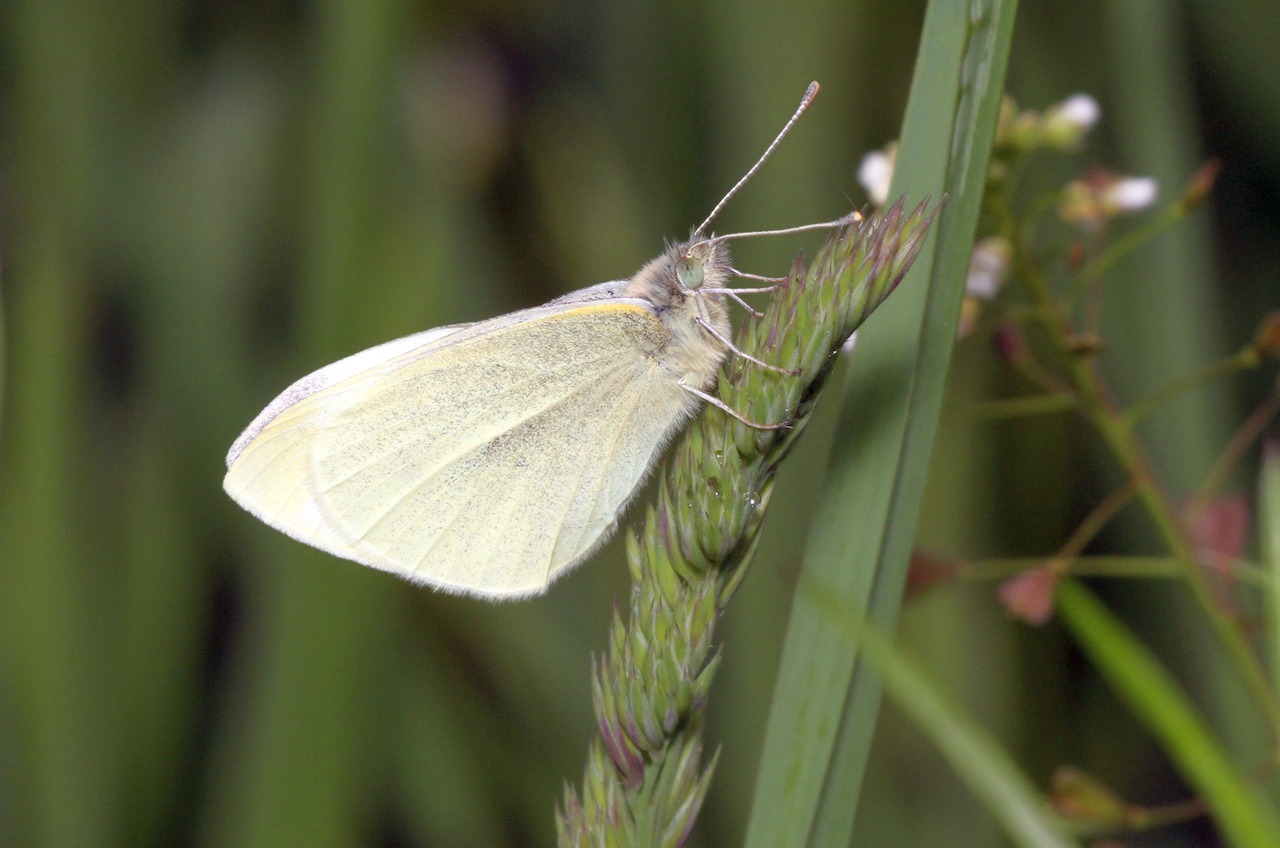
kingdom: Animalia
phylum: Arthropoda
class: Insecta
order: Lepidoptera
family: Pieridae
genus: Pieris
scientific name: Pieris rapae
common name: Small white
